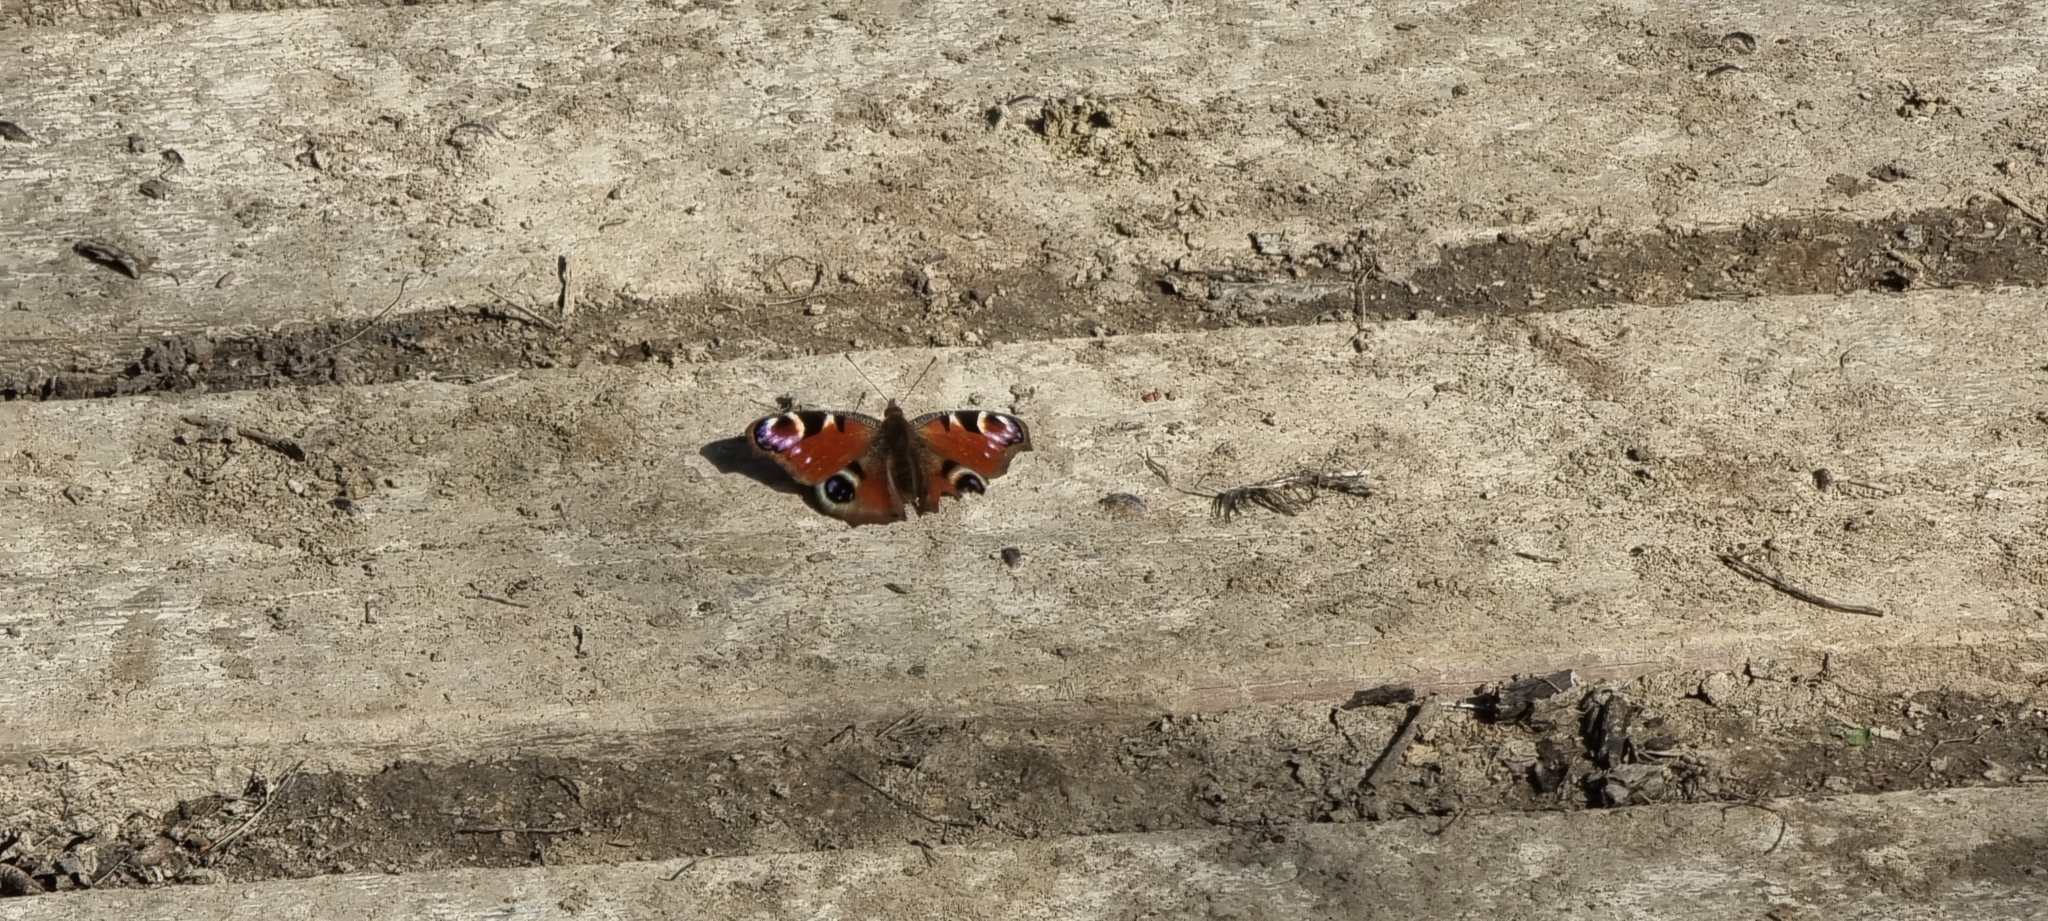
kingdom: Animalia
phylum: Arthropoda
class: Insecta
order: Lepidoptera
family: Nymphalidae
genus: Aglais
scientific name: Aglais io
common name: Peacock
